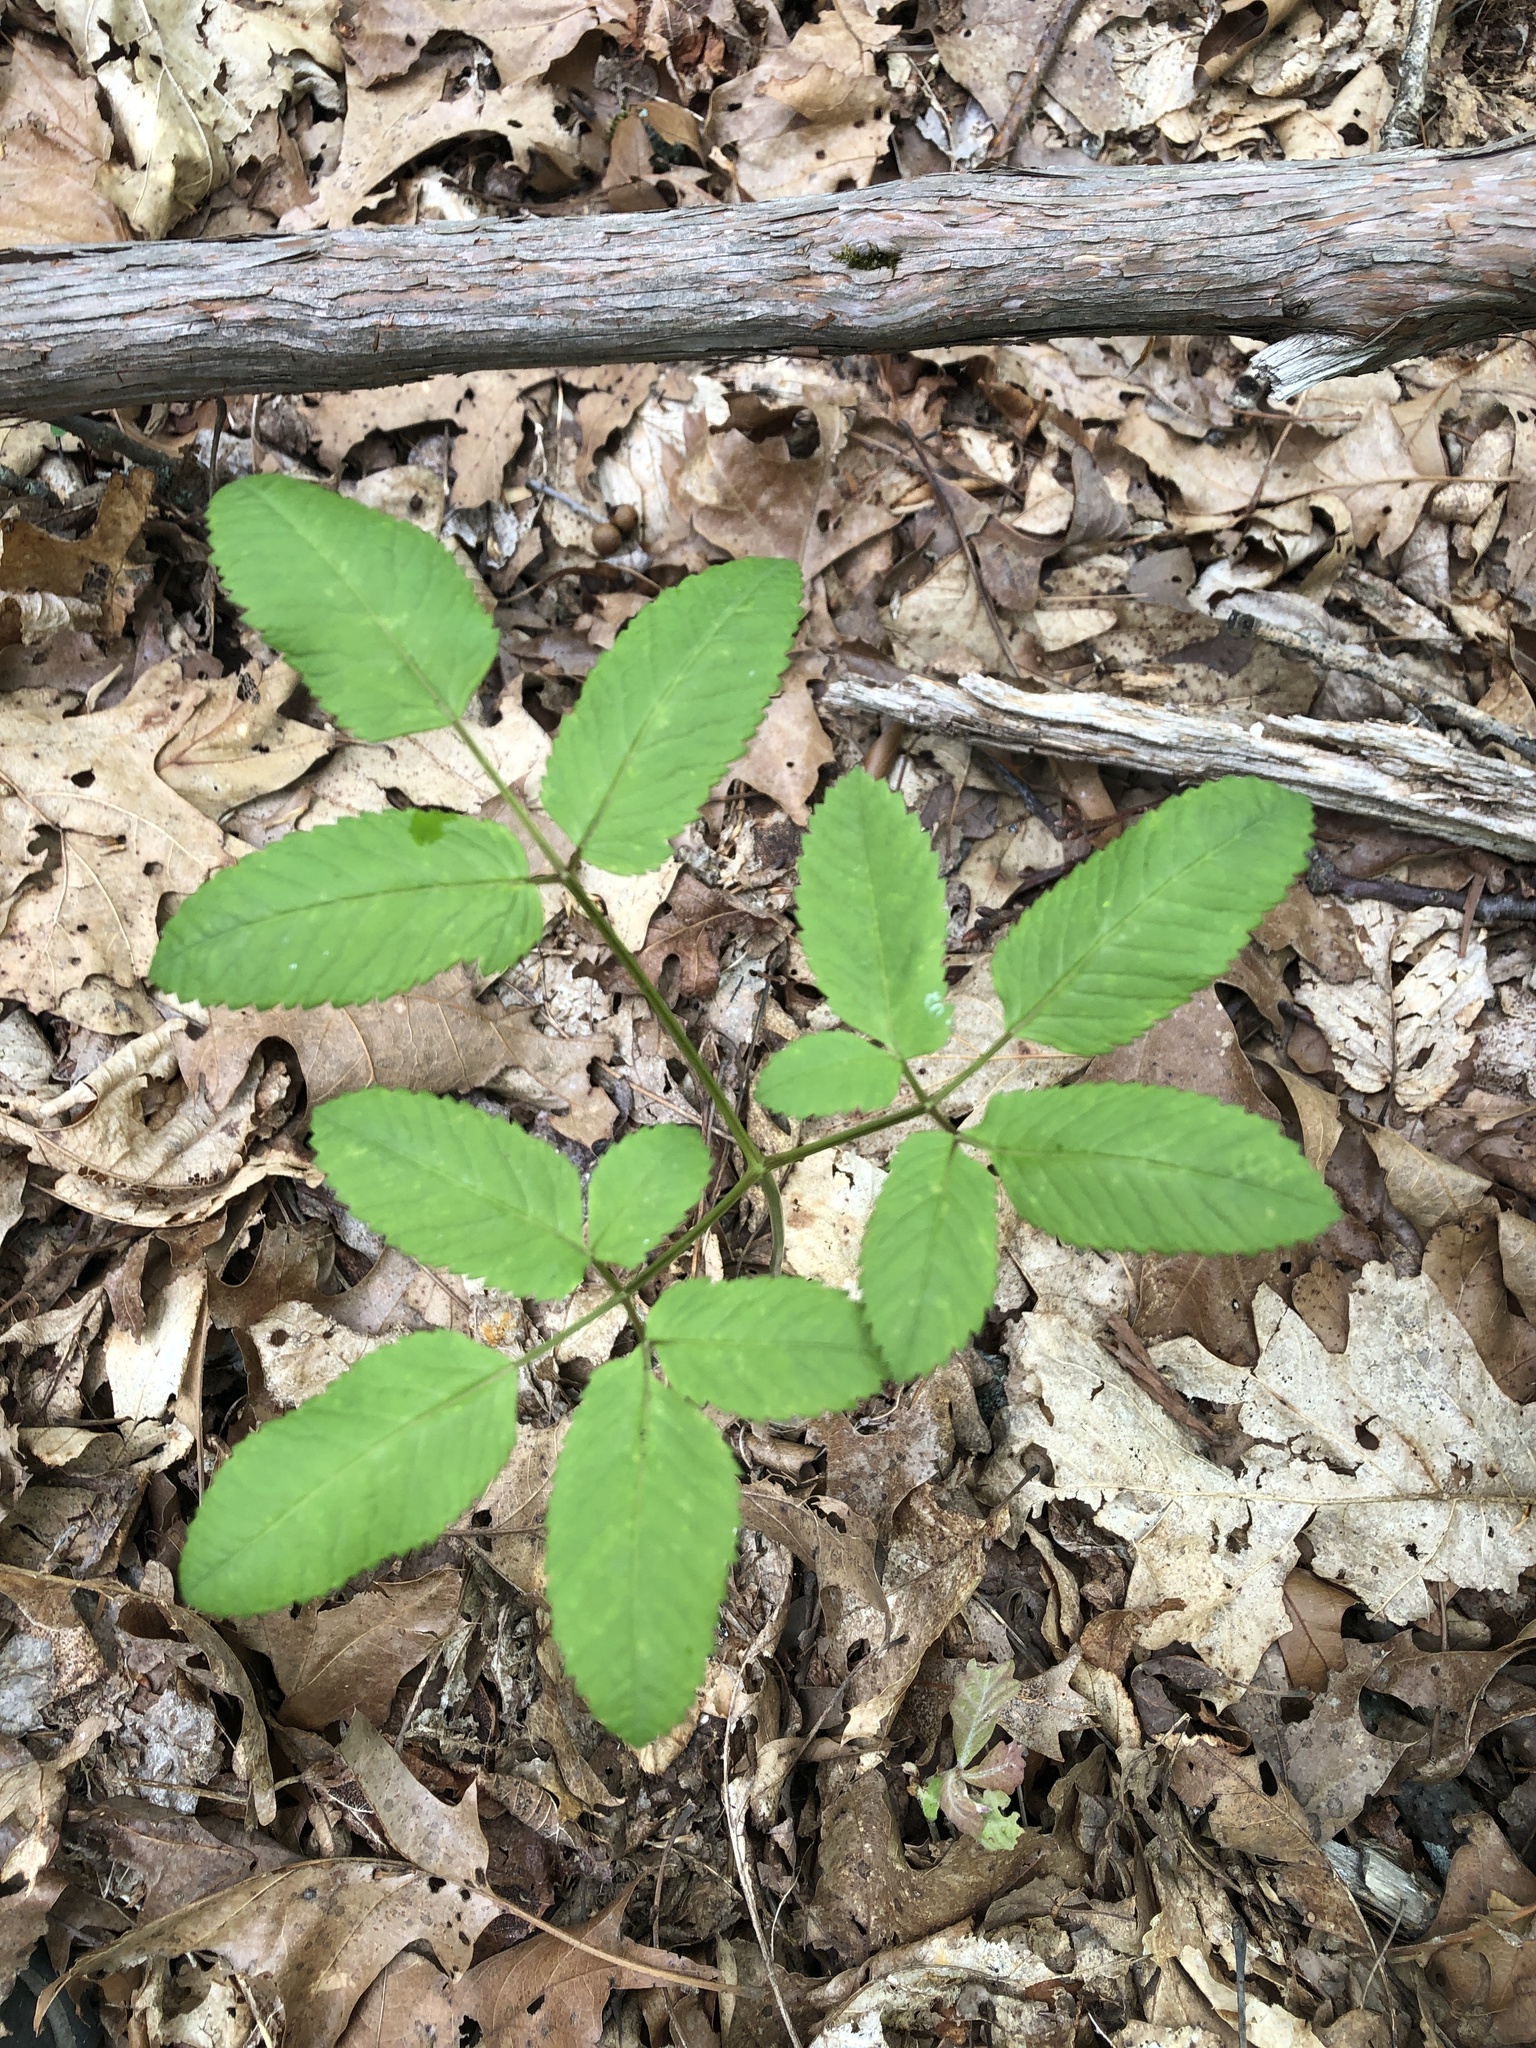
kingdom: Plantae
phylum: Tracheophyta
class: Magnoliopsida
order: Apiales
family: Apiaceae
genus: Ligusticum
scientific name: Ligusticum canadense
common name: American lovage
